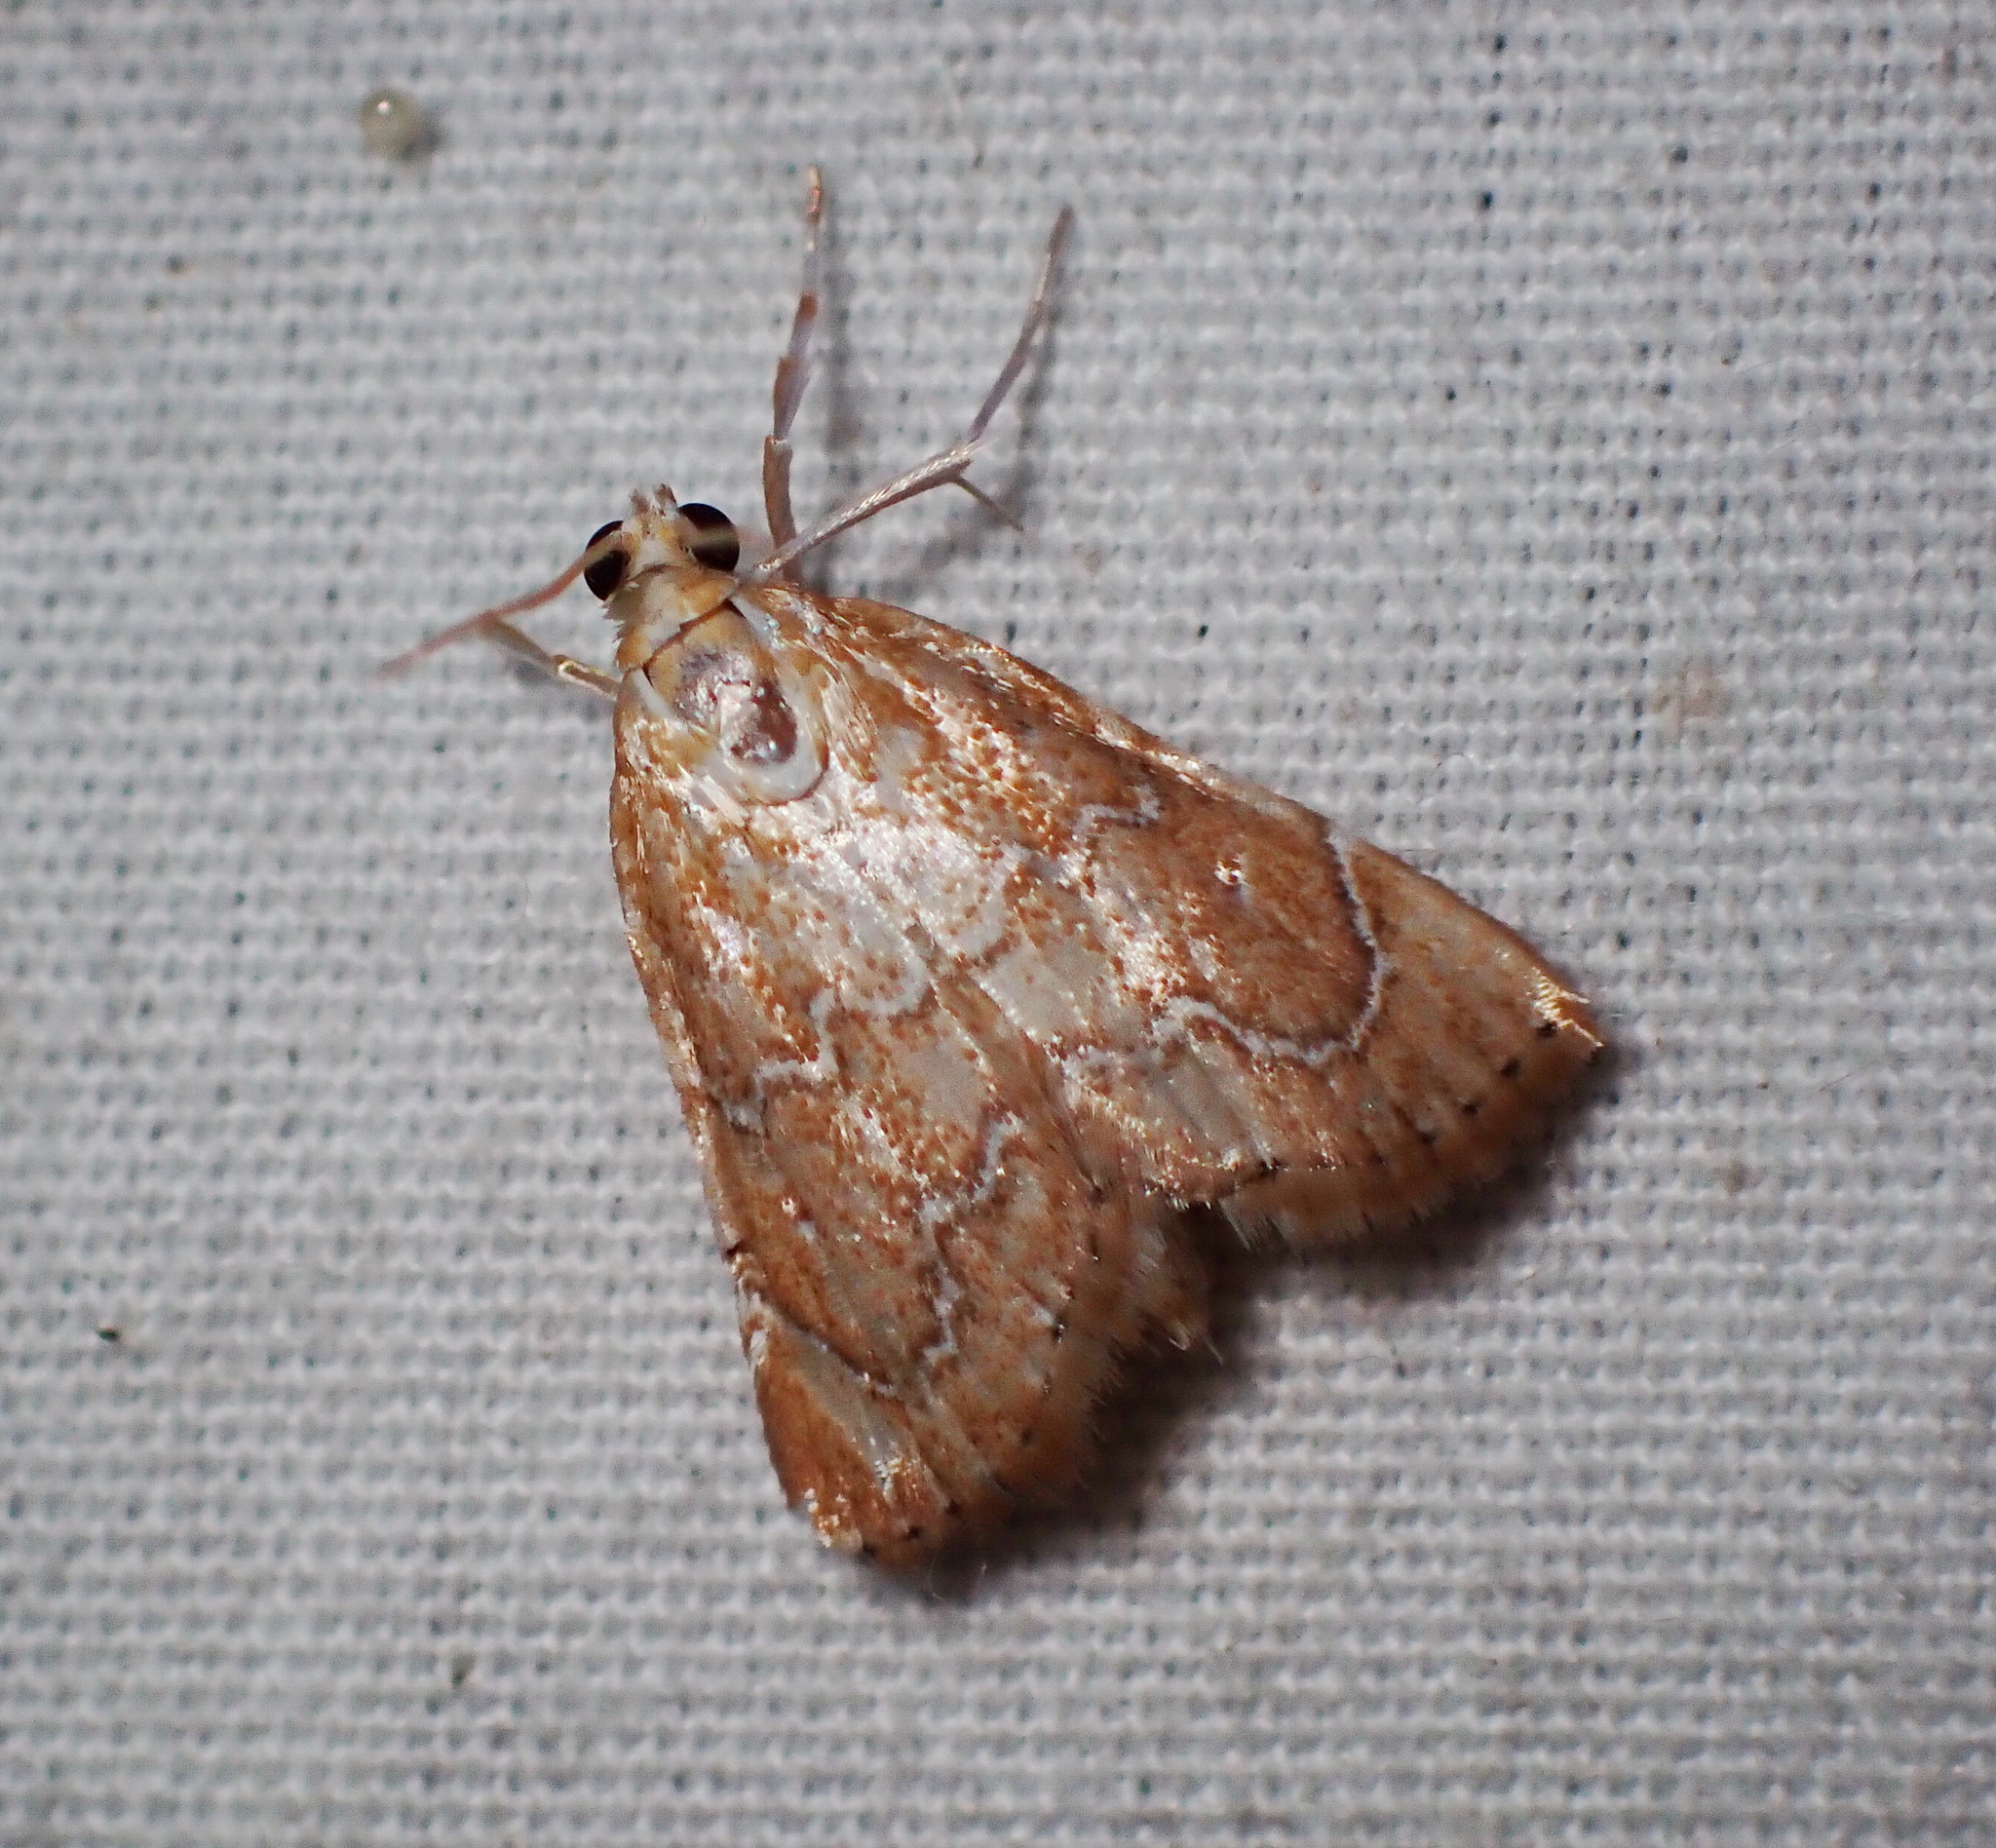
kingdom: Animalia
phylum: Arthropoda
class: Insecta
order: Lepidoptera
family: Crambidae
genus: Glaphyria
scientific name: Glaphyria sesquistrialis
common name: White-roped glaphyria
